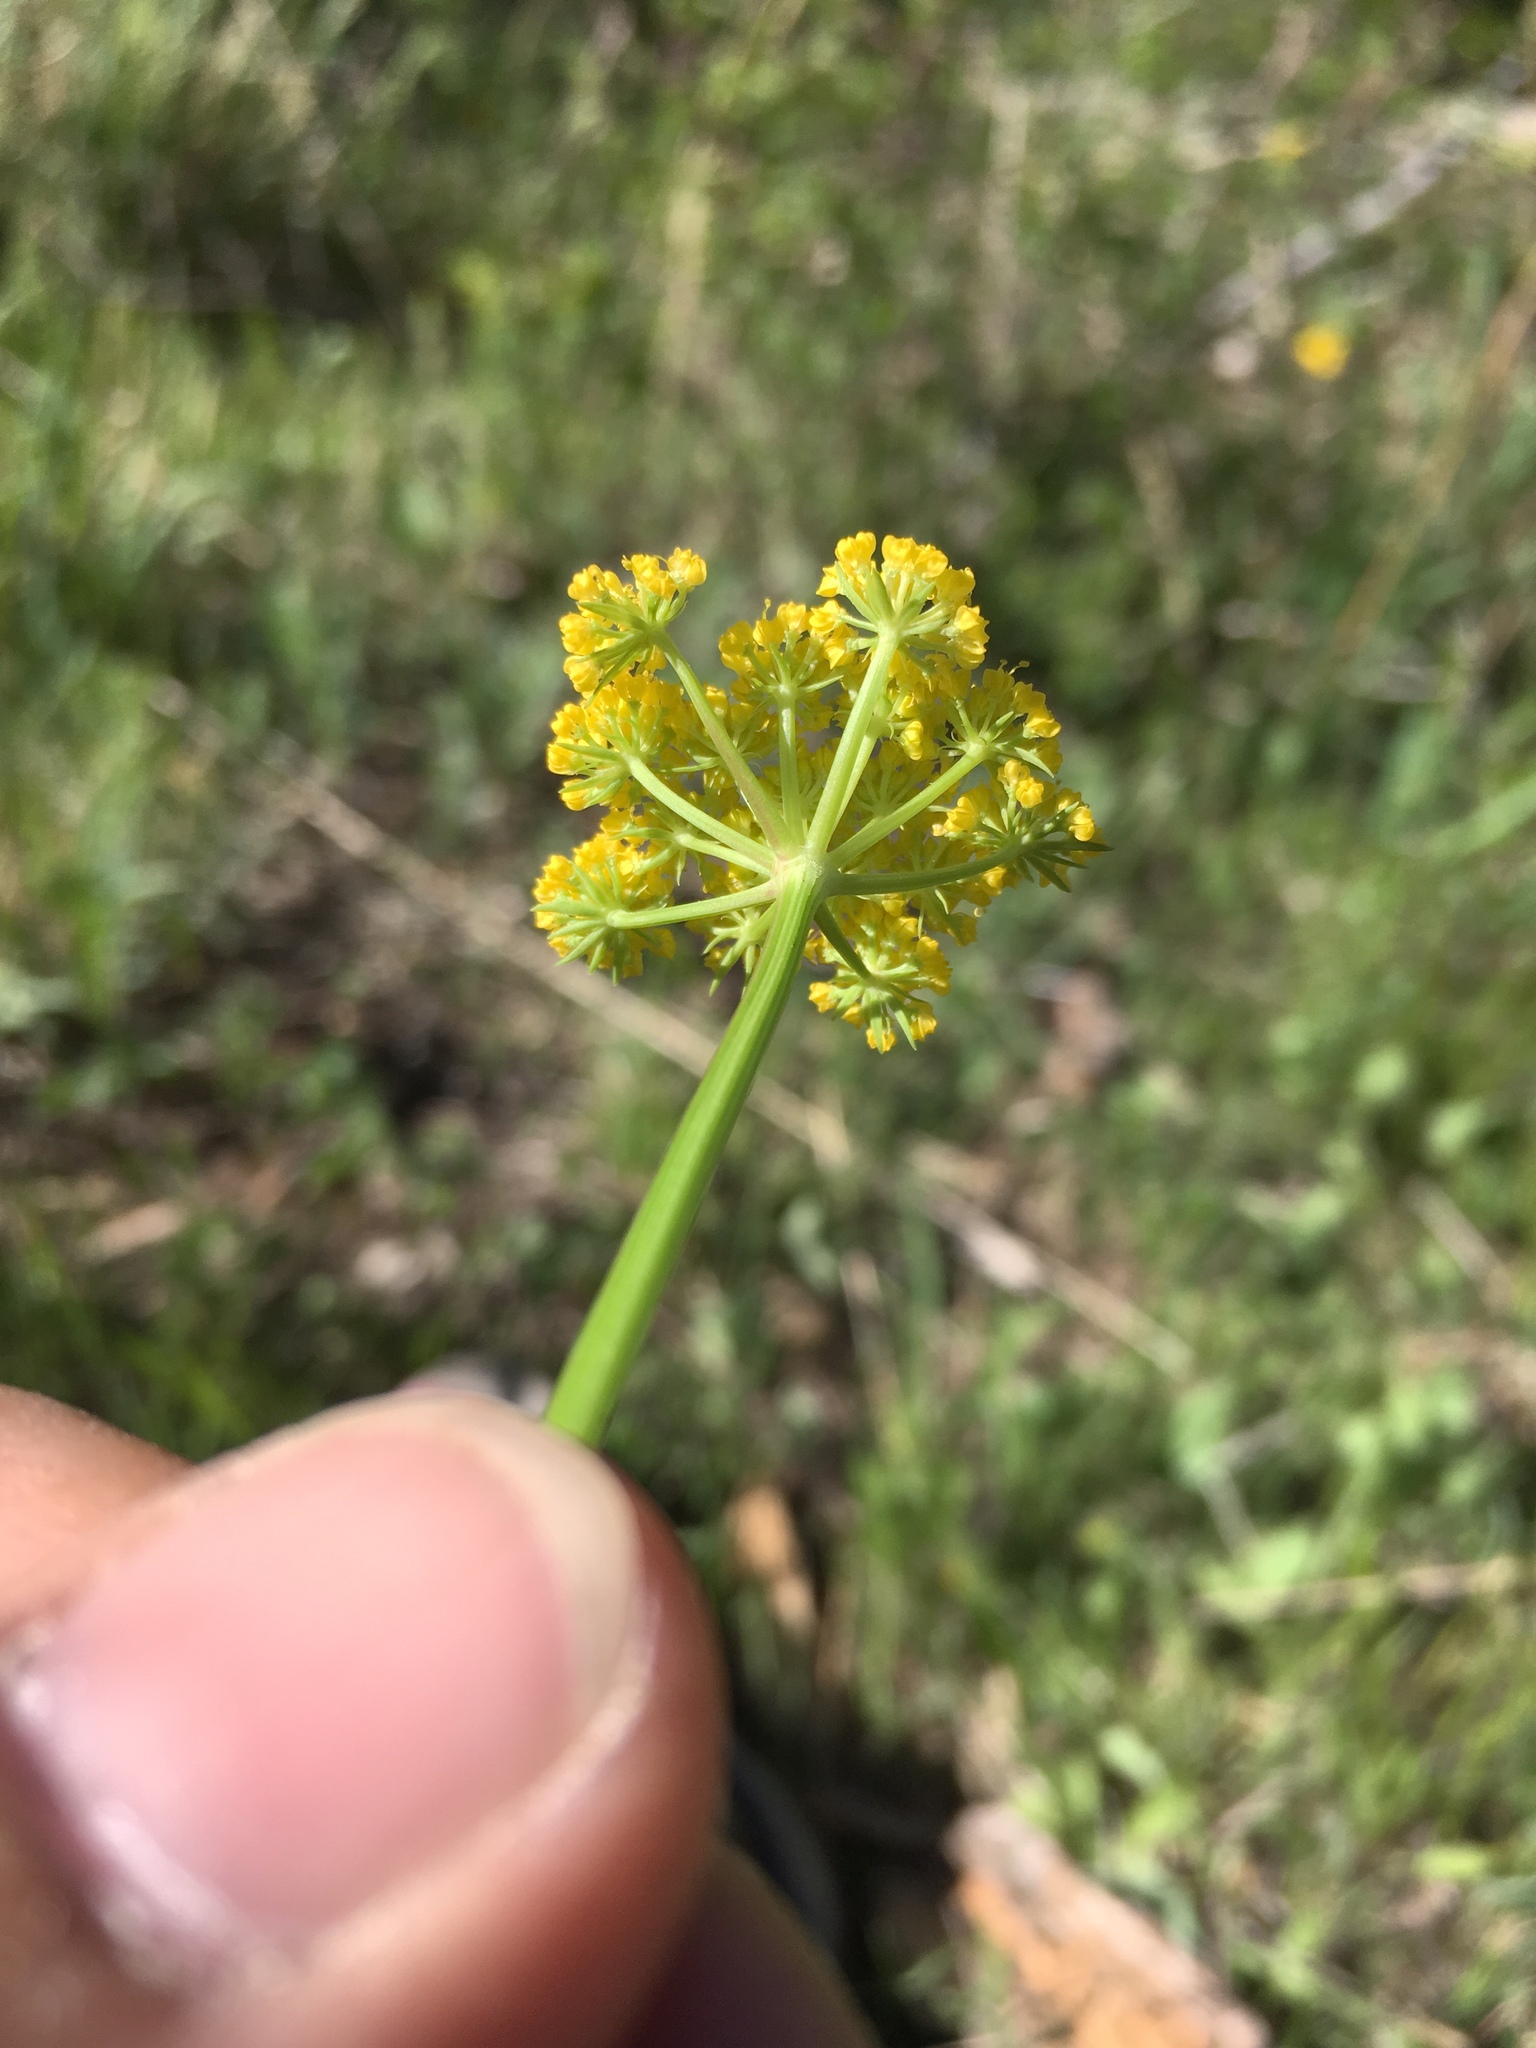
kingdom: Plantae
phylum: Tracheophyta
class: Magnoliopsida
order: Apiales
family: Apiaceae
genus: Cymopterus
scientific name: Cymopterus lemmonii
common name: Lemmon's spring-parsley
